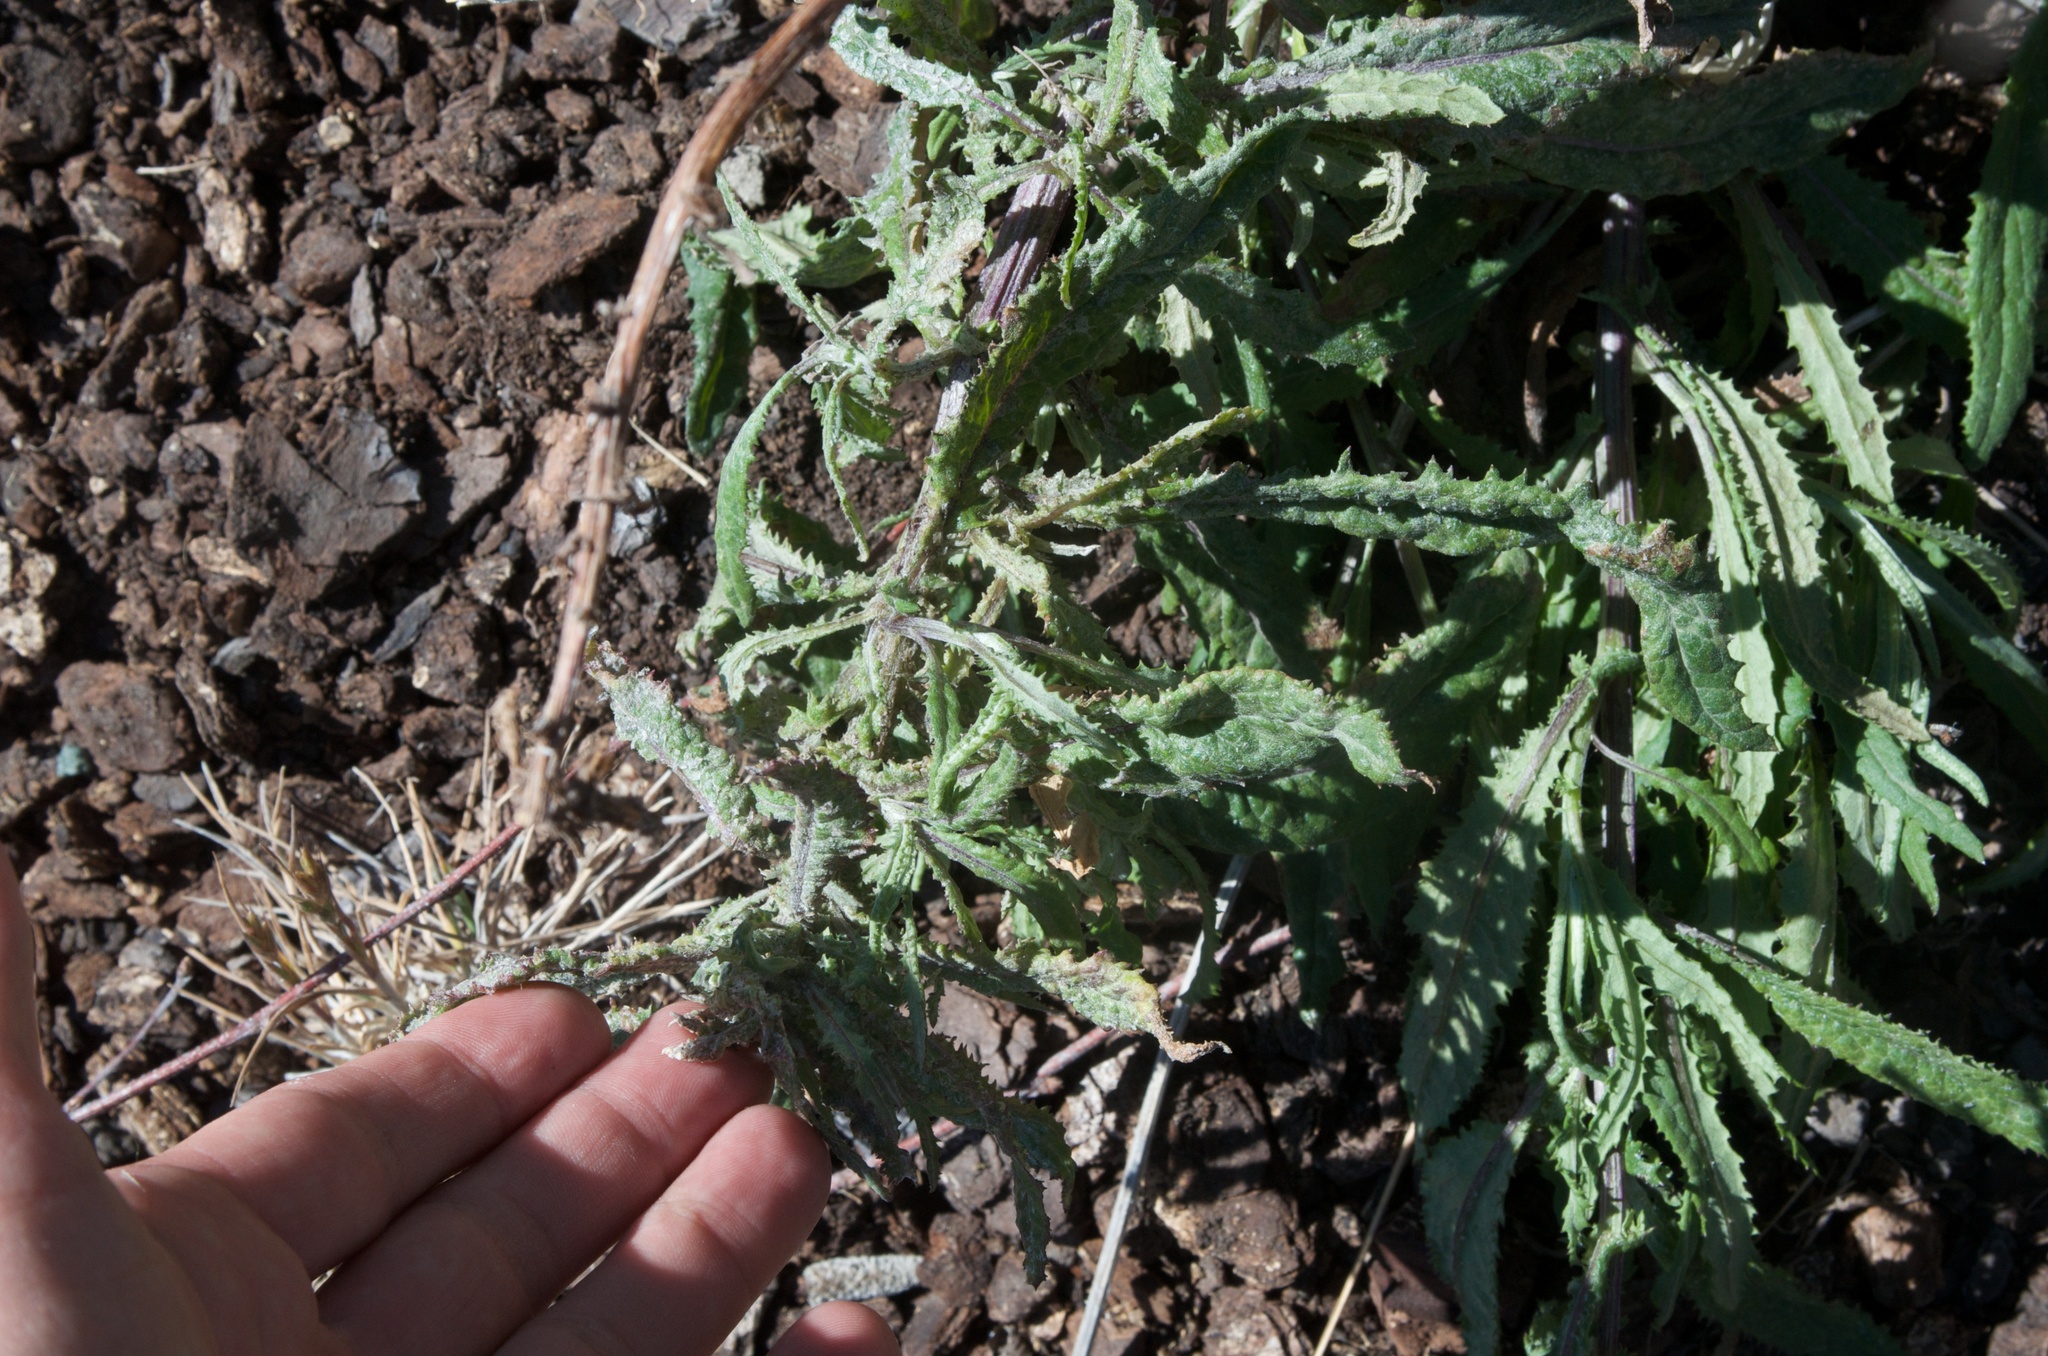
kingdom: Plantae
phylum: Tracheophyta
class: Magnoliopsida
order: Asterales
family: Asteraceae
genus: Senecio
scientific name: Senecio minimus
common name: Toothed fireweed
